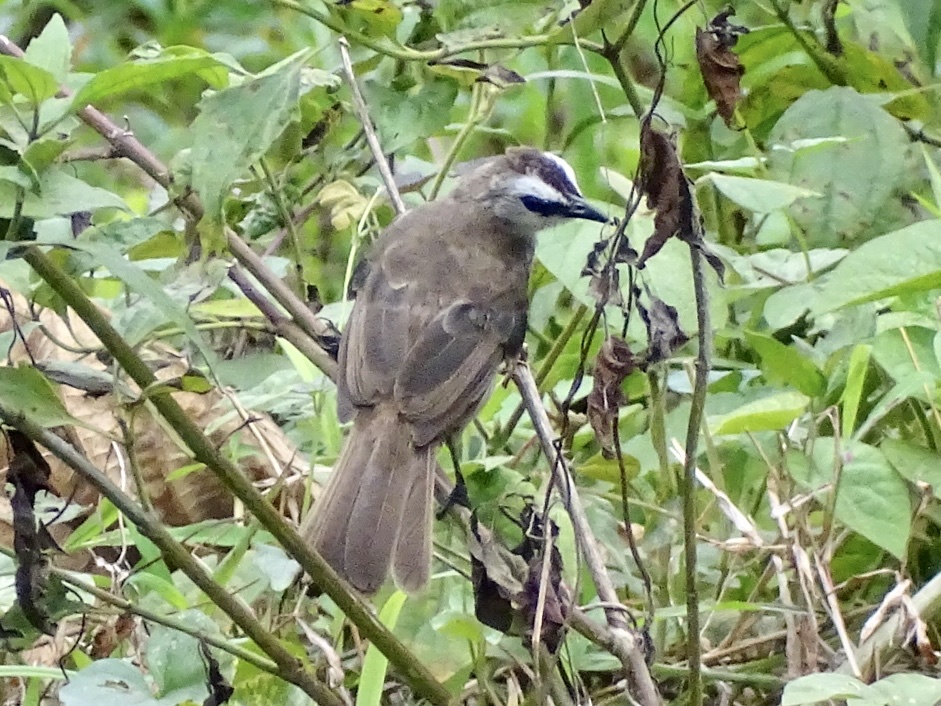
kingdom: Animalia
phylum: Chordata
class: Aves
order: Passeriformes
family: Pycnonotidae
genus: Pycnonotus
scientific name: Pycnonotus goiavier
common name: Yellow-vented bulbul
